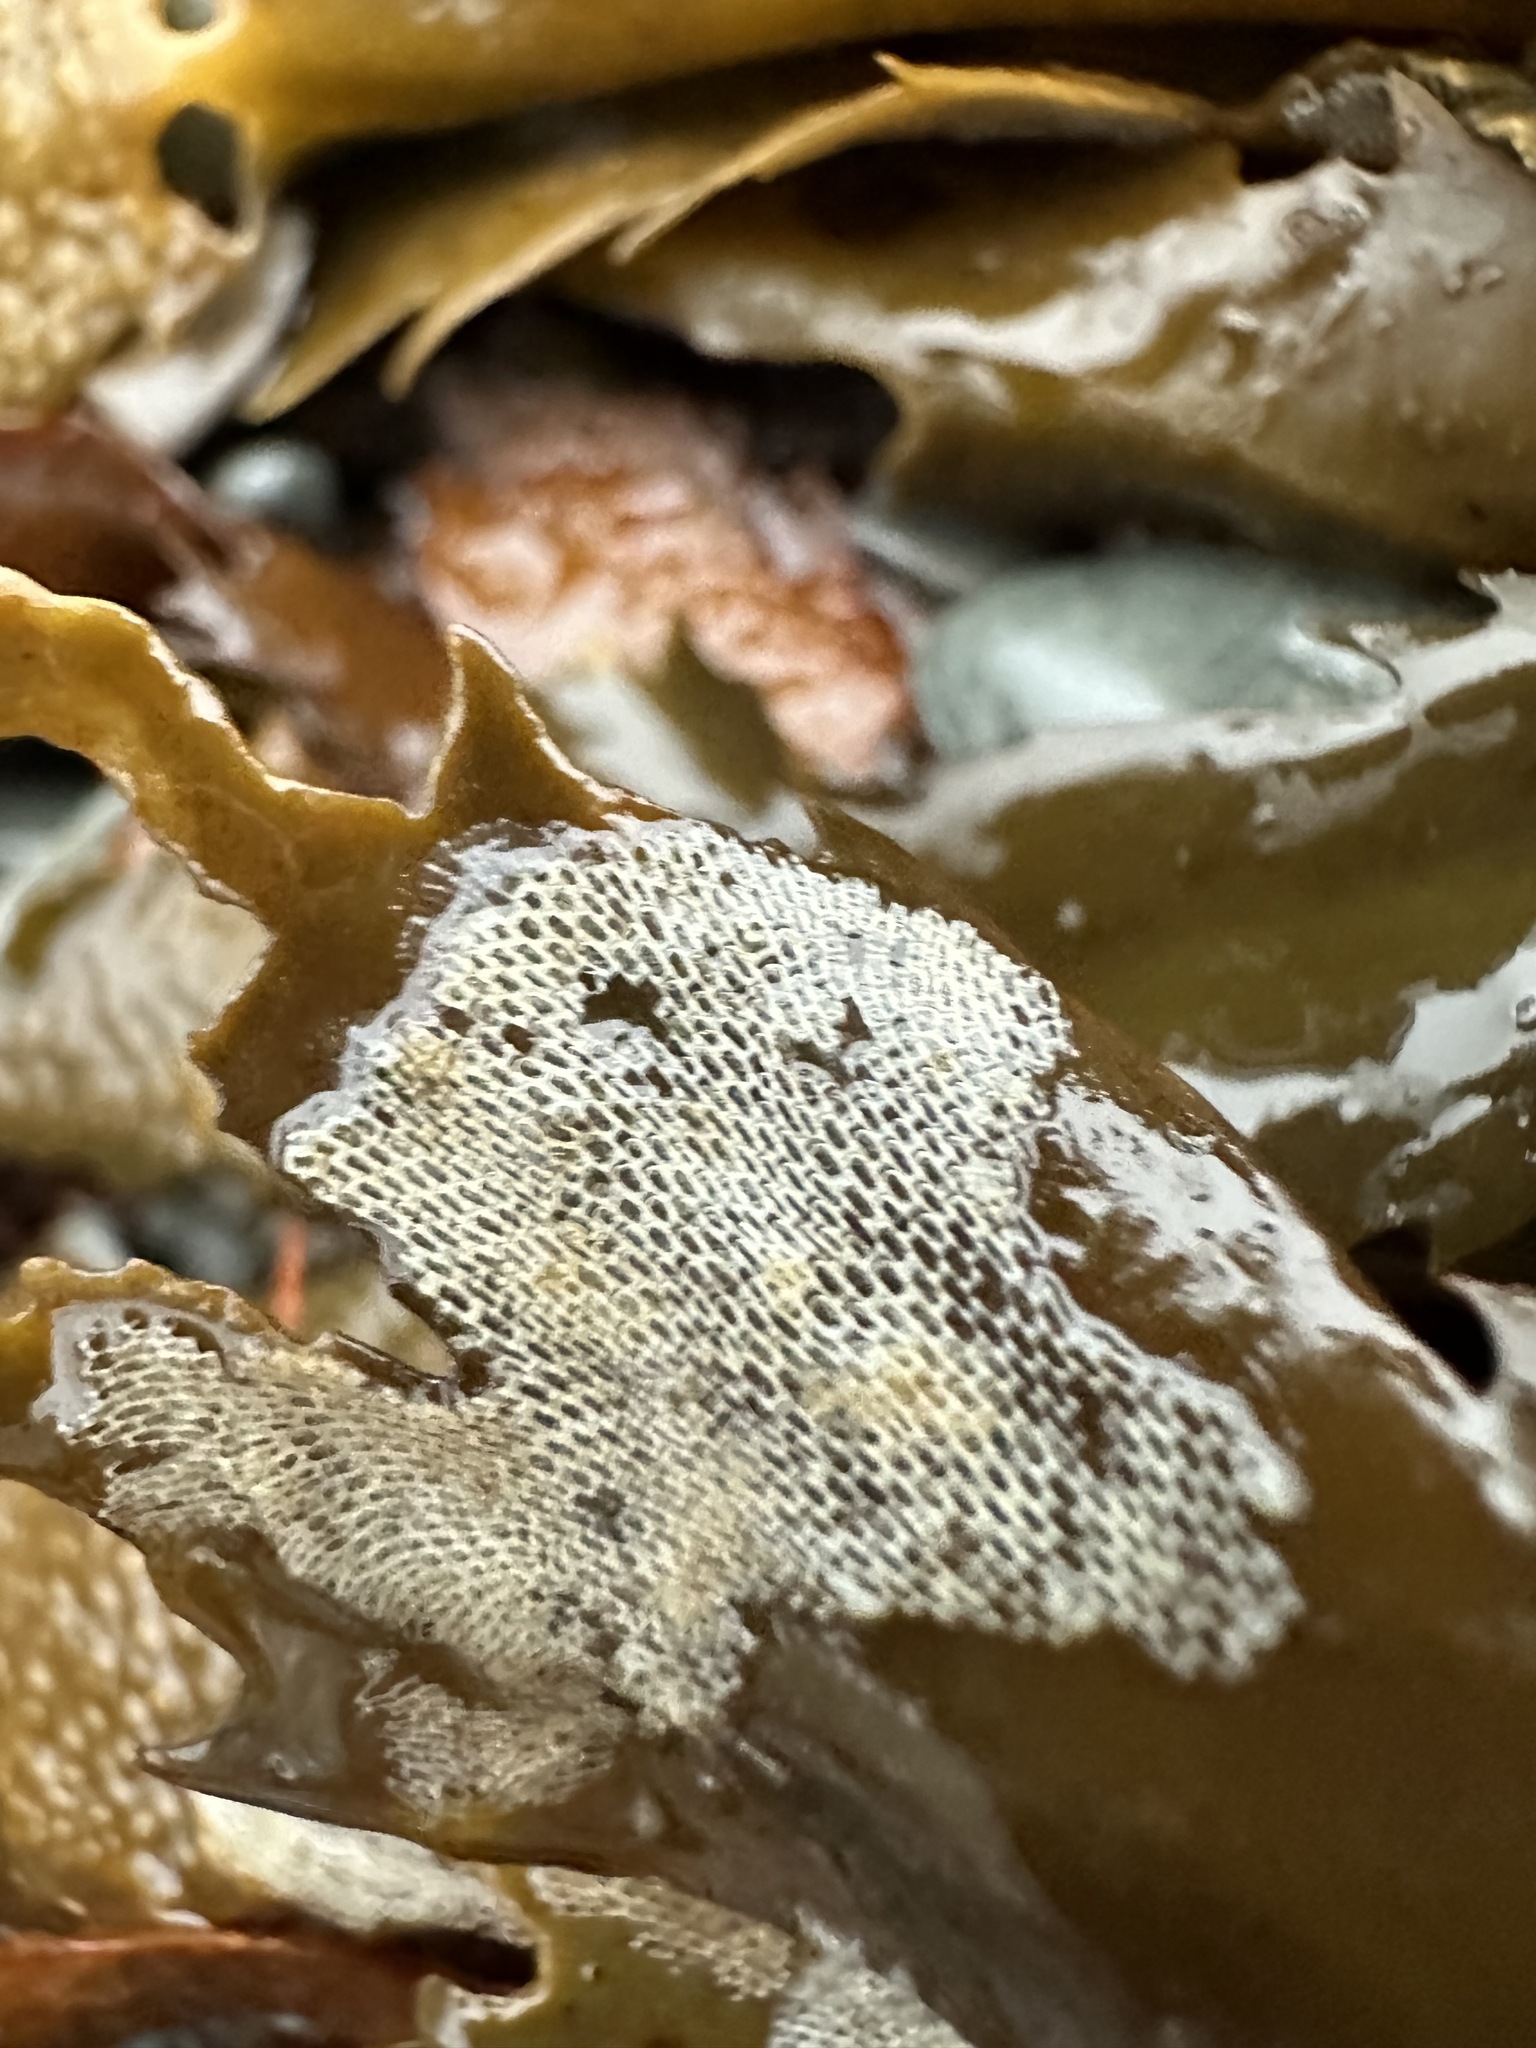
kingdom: Animalia
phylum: Bryozoa
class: Gymnolaemata
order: Cheilostomatida
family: Membraniporidae
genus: Membranipora
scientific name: Membranipora membranacea
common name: Sea mat
